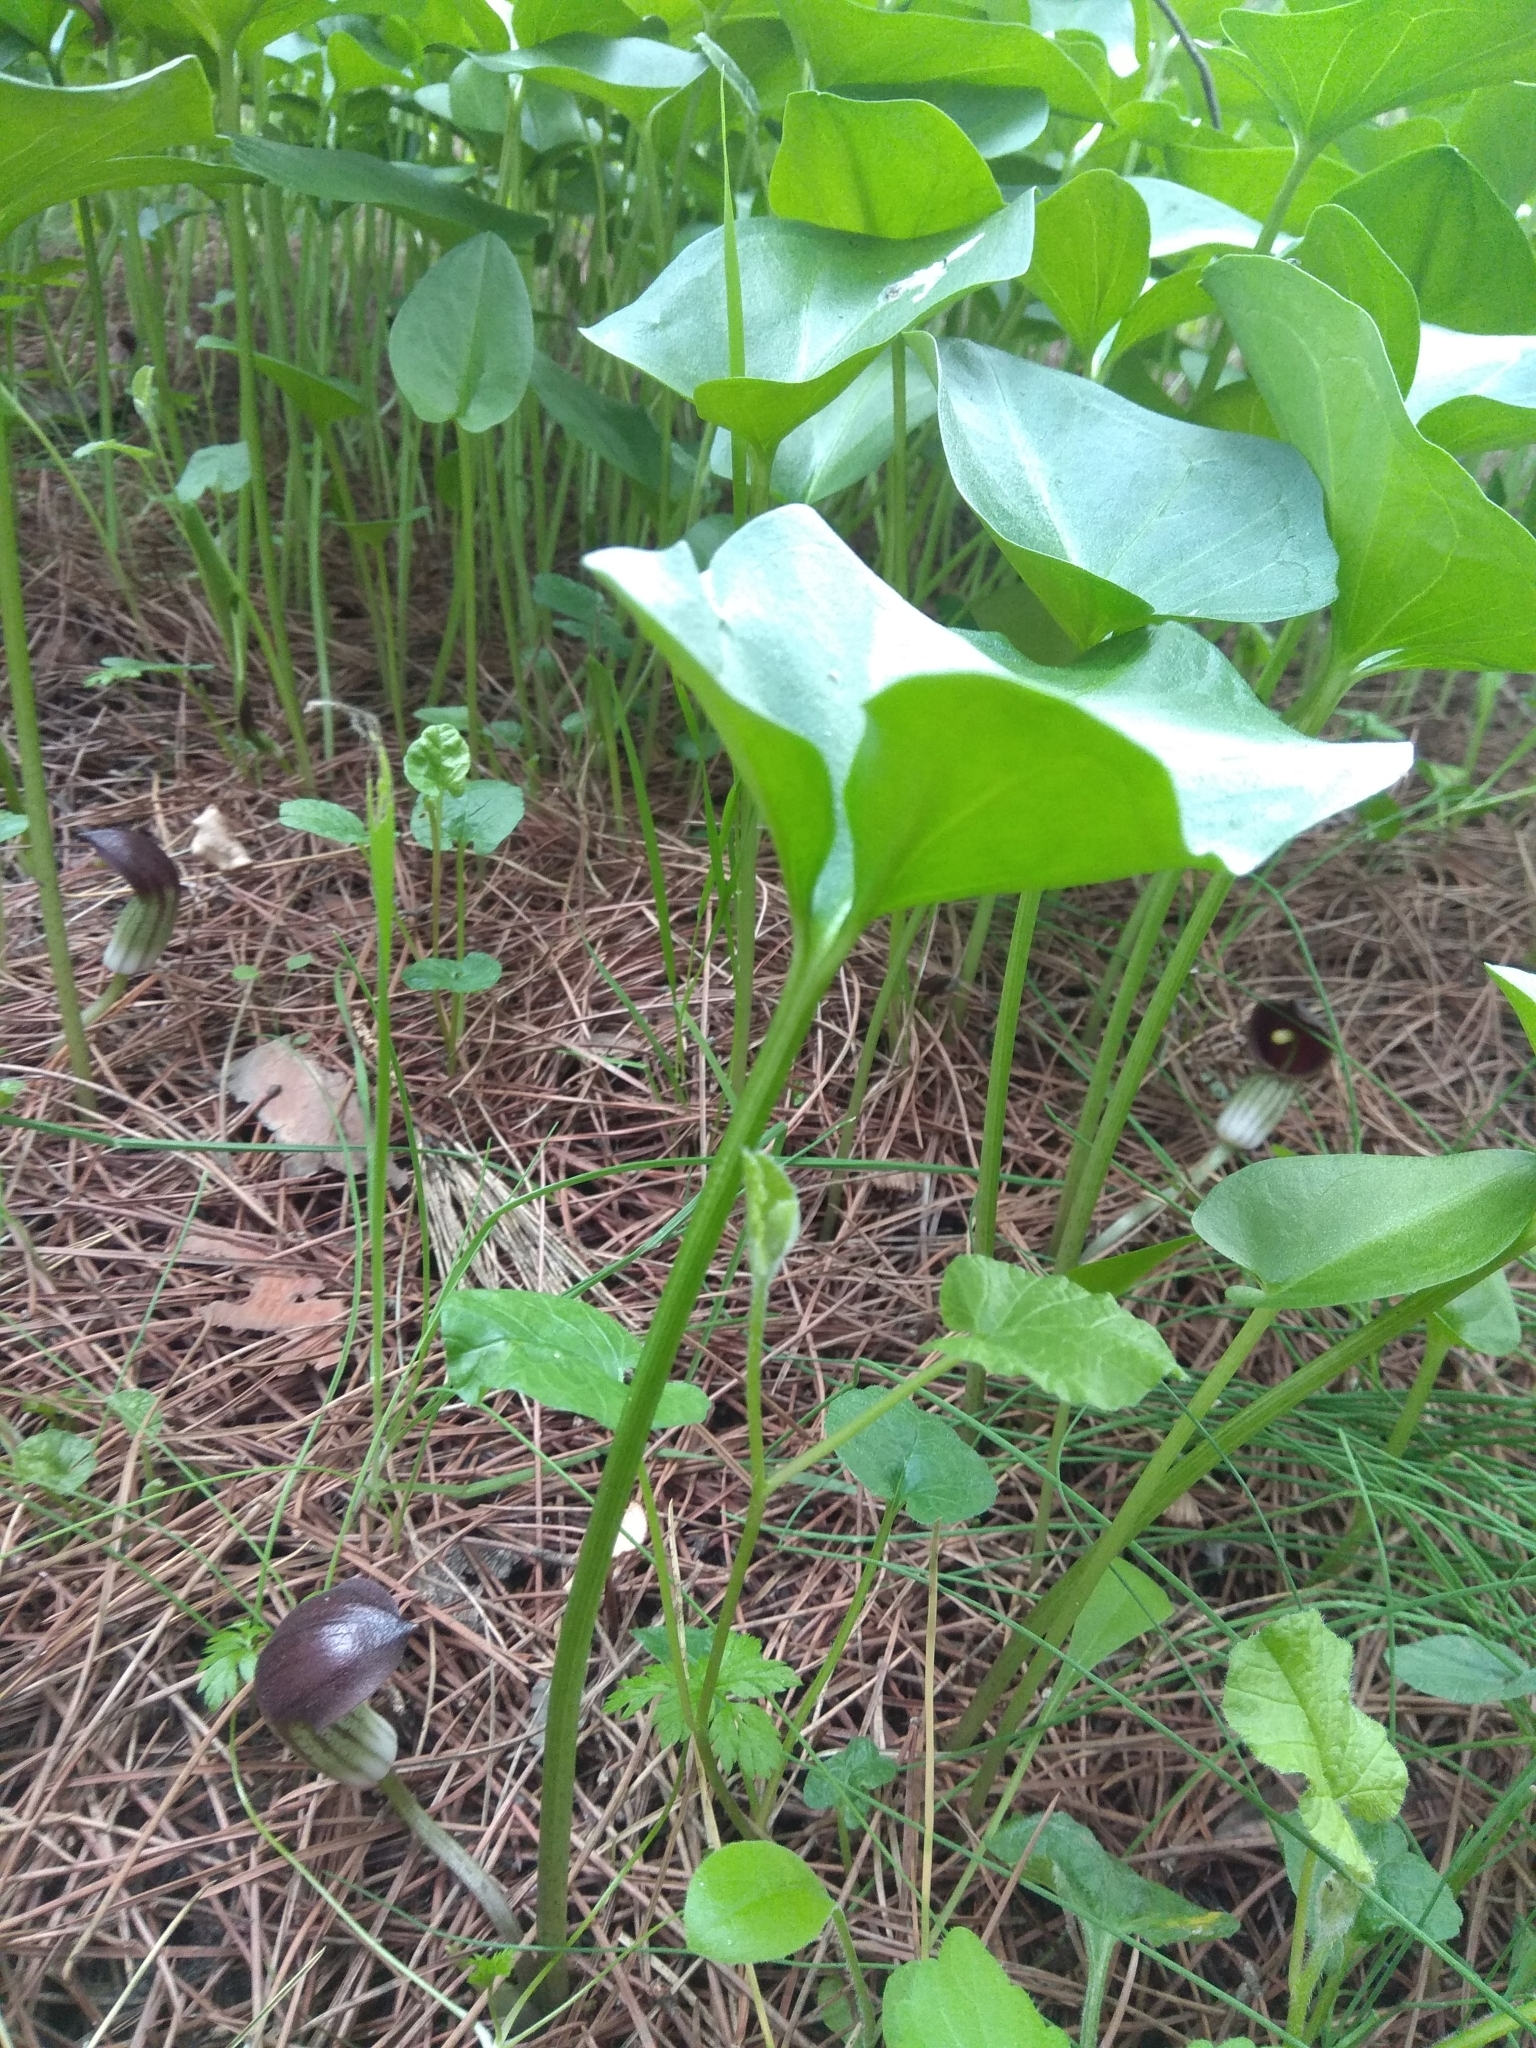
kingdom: Plantae
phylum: Tracheophyta
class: Liliopsida
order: Alismatales
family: Araceae
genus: Arisarum
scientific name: Arisarum simorrhinum
